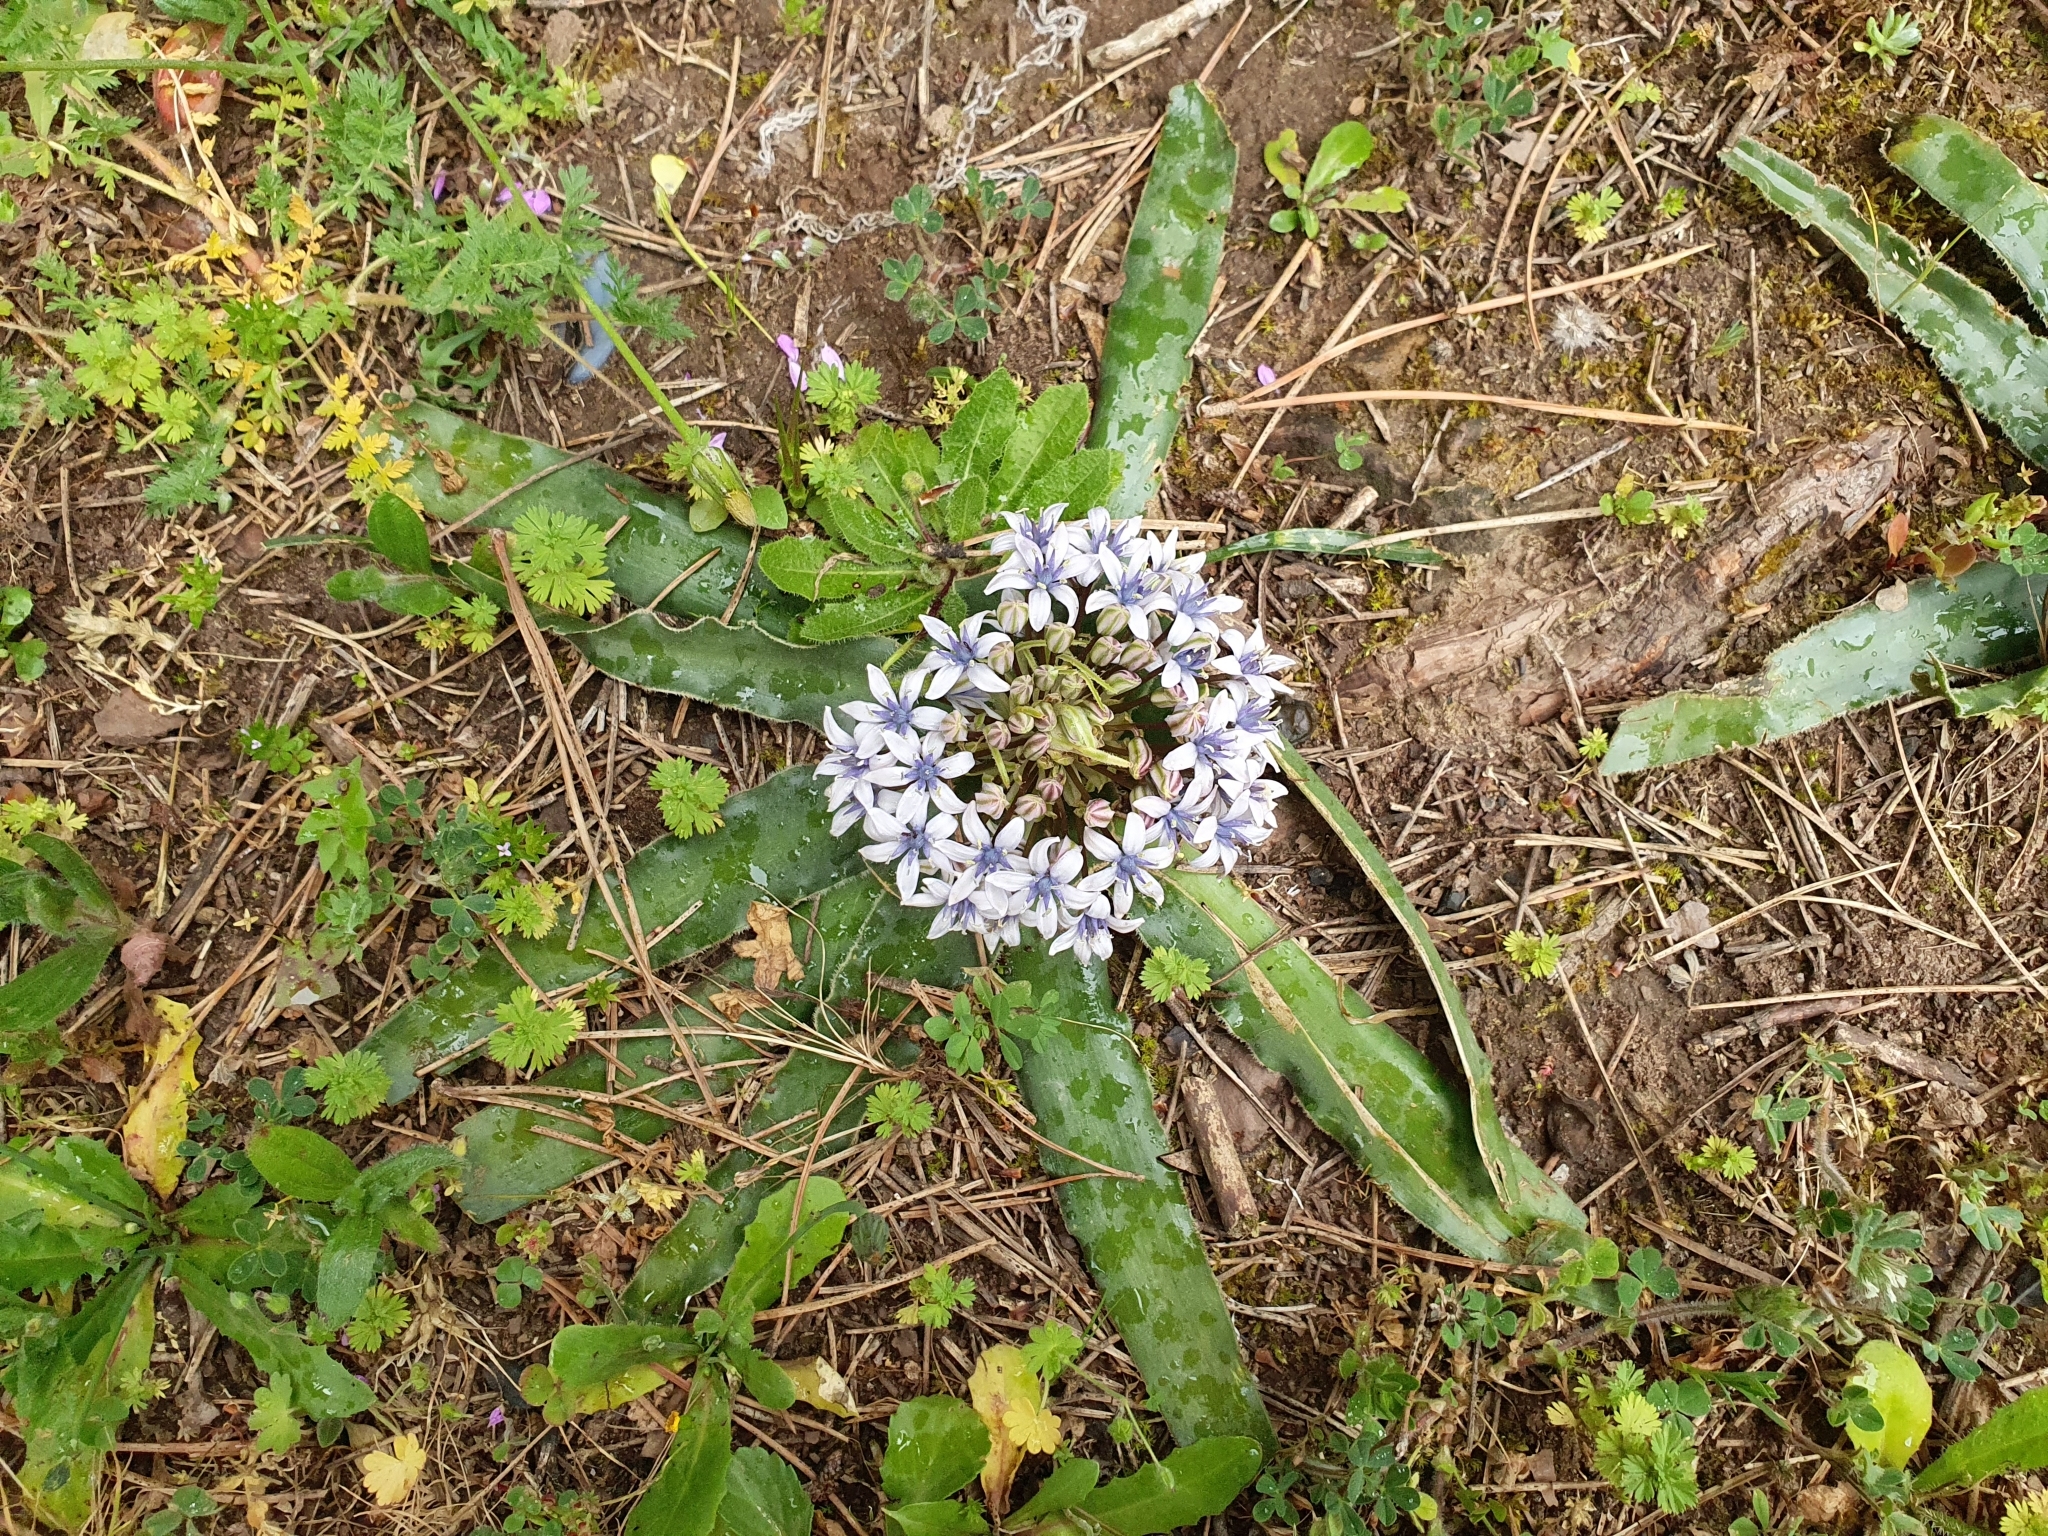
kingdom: Plantae
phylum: Tracheophyta
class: Liliopsida
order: Asparagales
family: Asparagaceae
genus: Scilla
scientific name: Scilla peruviana
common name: Portuguese squill
